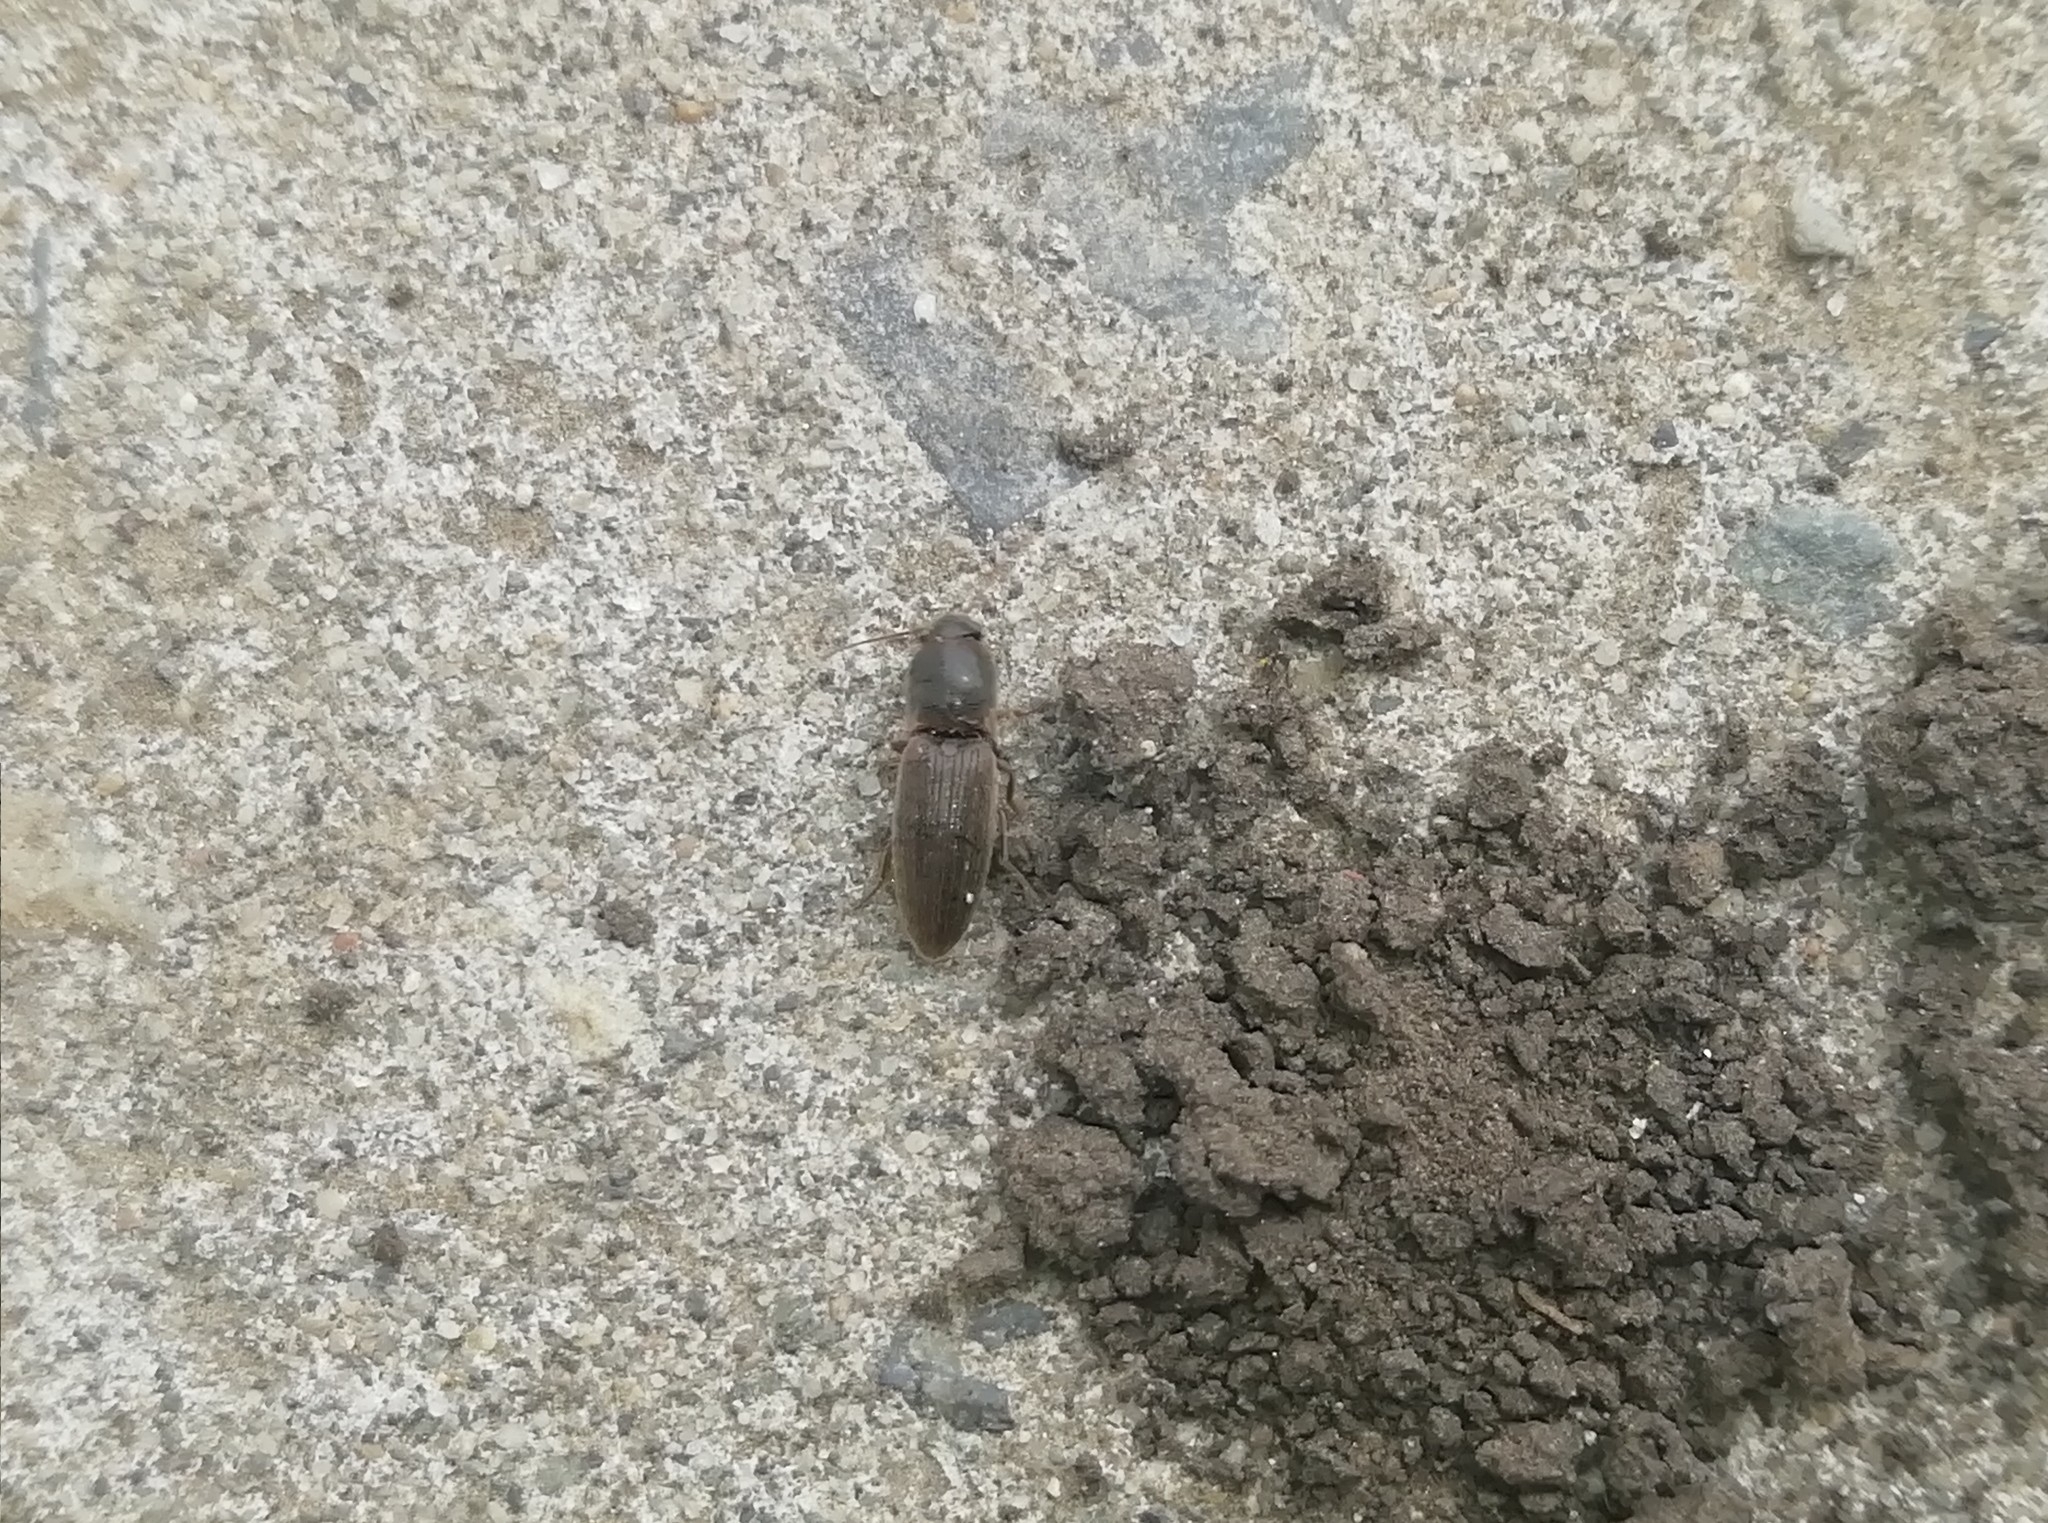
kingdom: Animalia
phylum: Arthropoda
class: Insecta
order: Coleoptera
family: Elateridae
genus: Athous
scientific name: Athous haemorrhoidalis
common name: Red-brown click beetle
